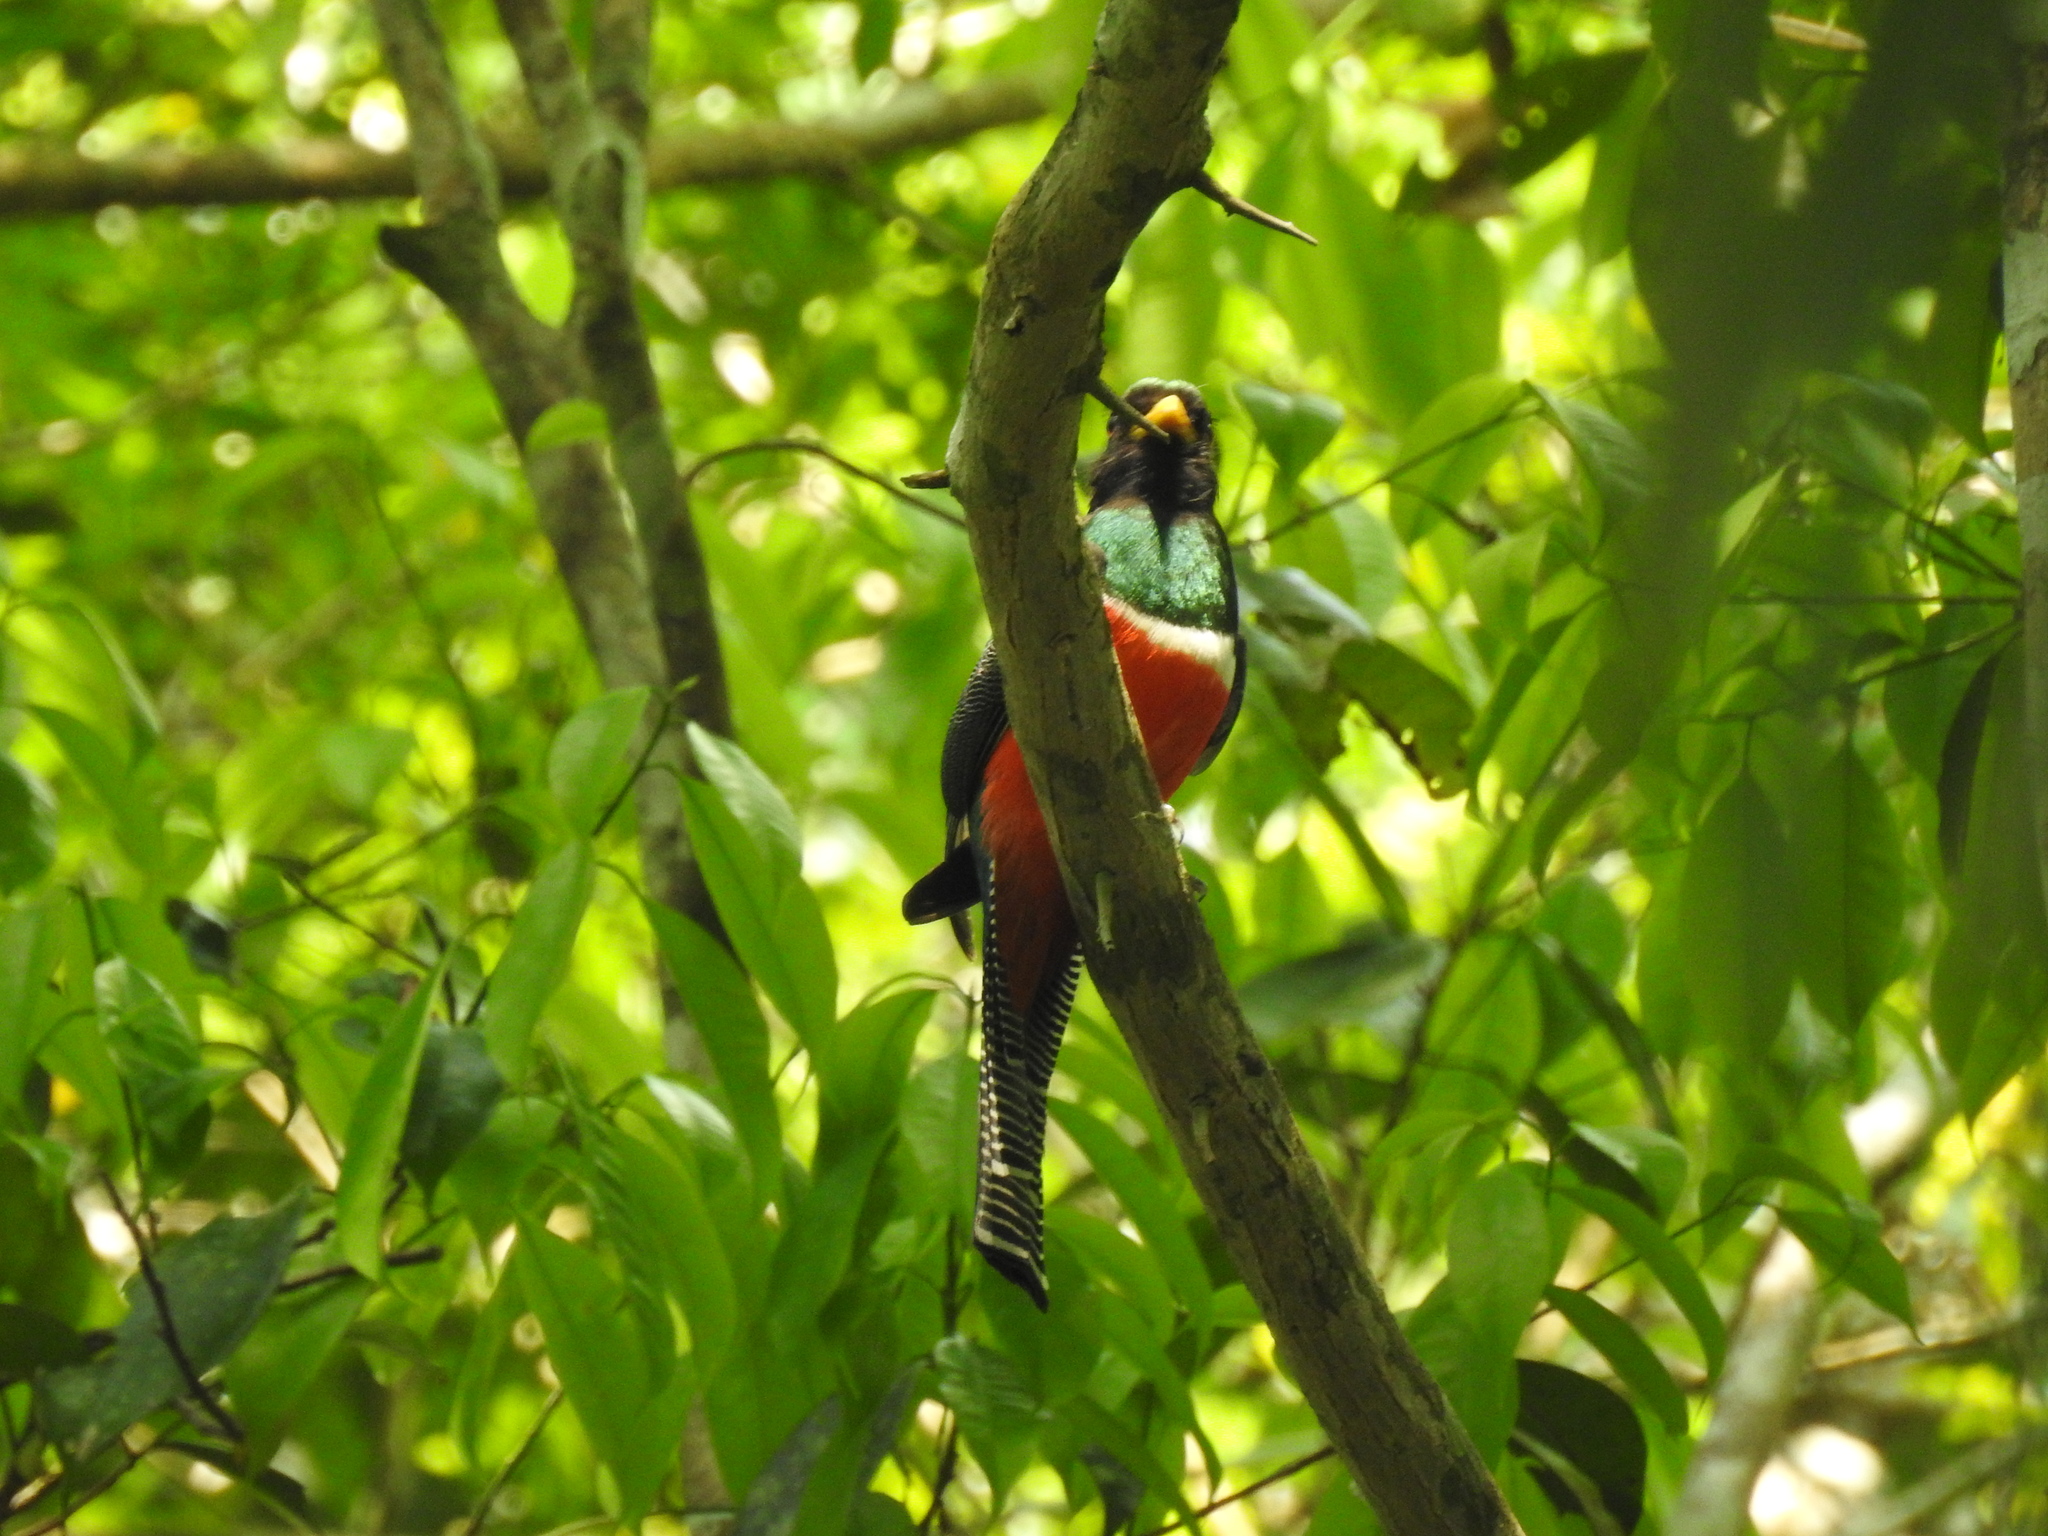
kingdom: Animalia
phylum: Chordata
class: Aves
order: Trogoniformes
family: Trogonidae
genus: Trogon
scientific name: Trogon collaris
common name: Collared trogon
